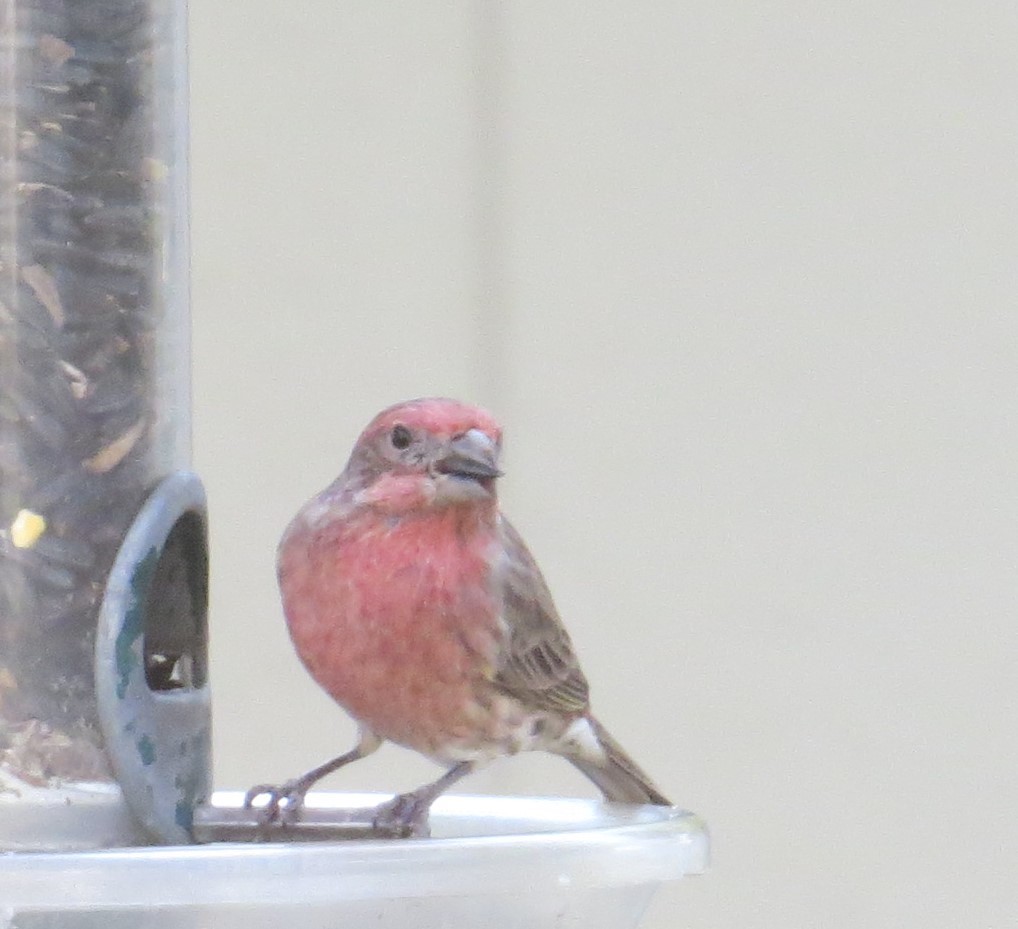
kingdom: Animalia
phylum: Chordata
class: Aves
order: Passeriformes
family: Fringillidae
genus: Haemorhous
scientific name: Haemorhous mexicanus
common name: House finch
